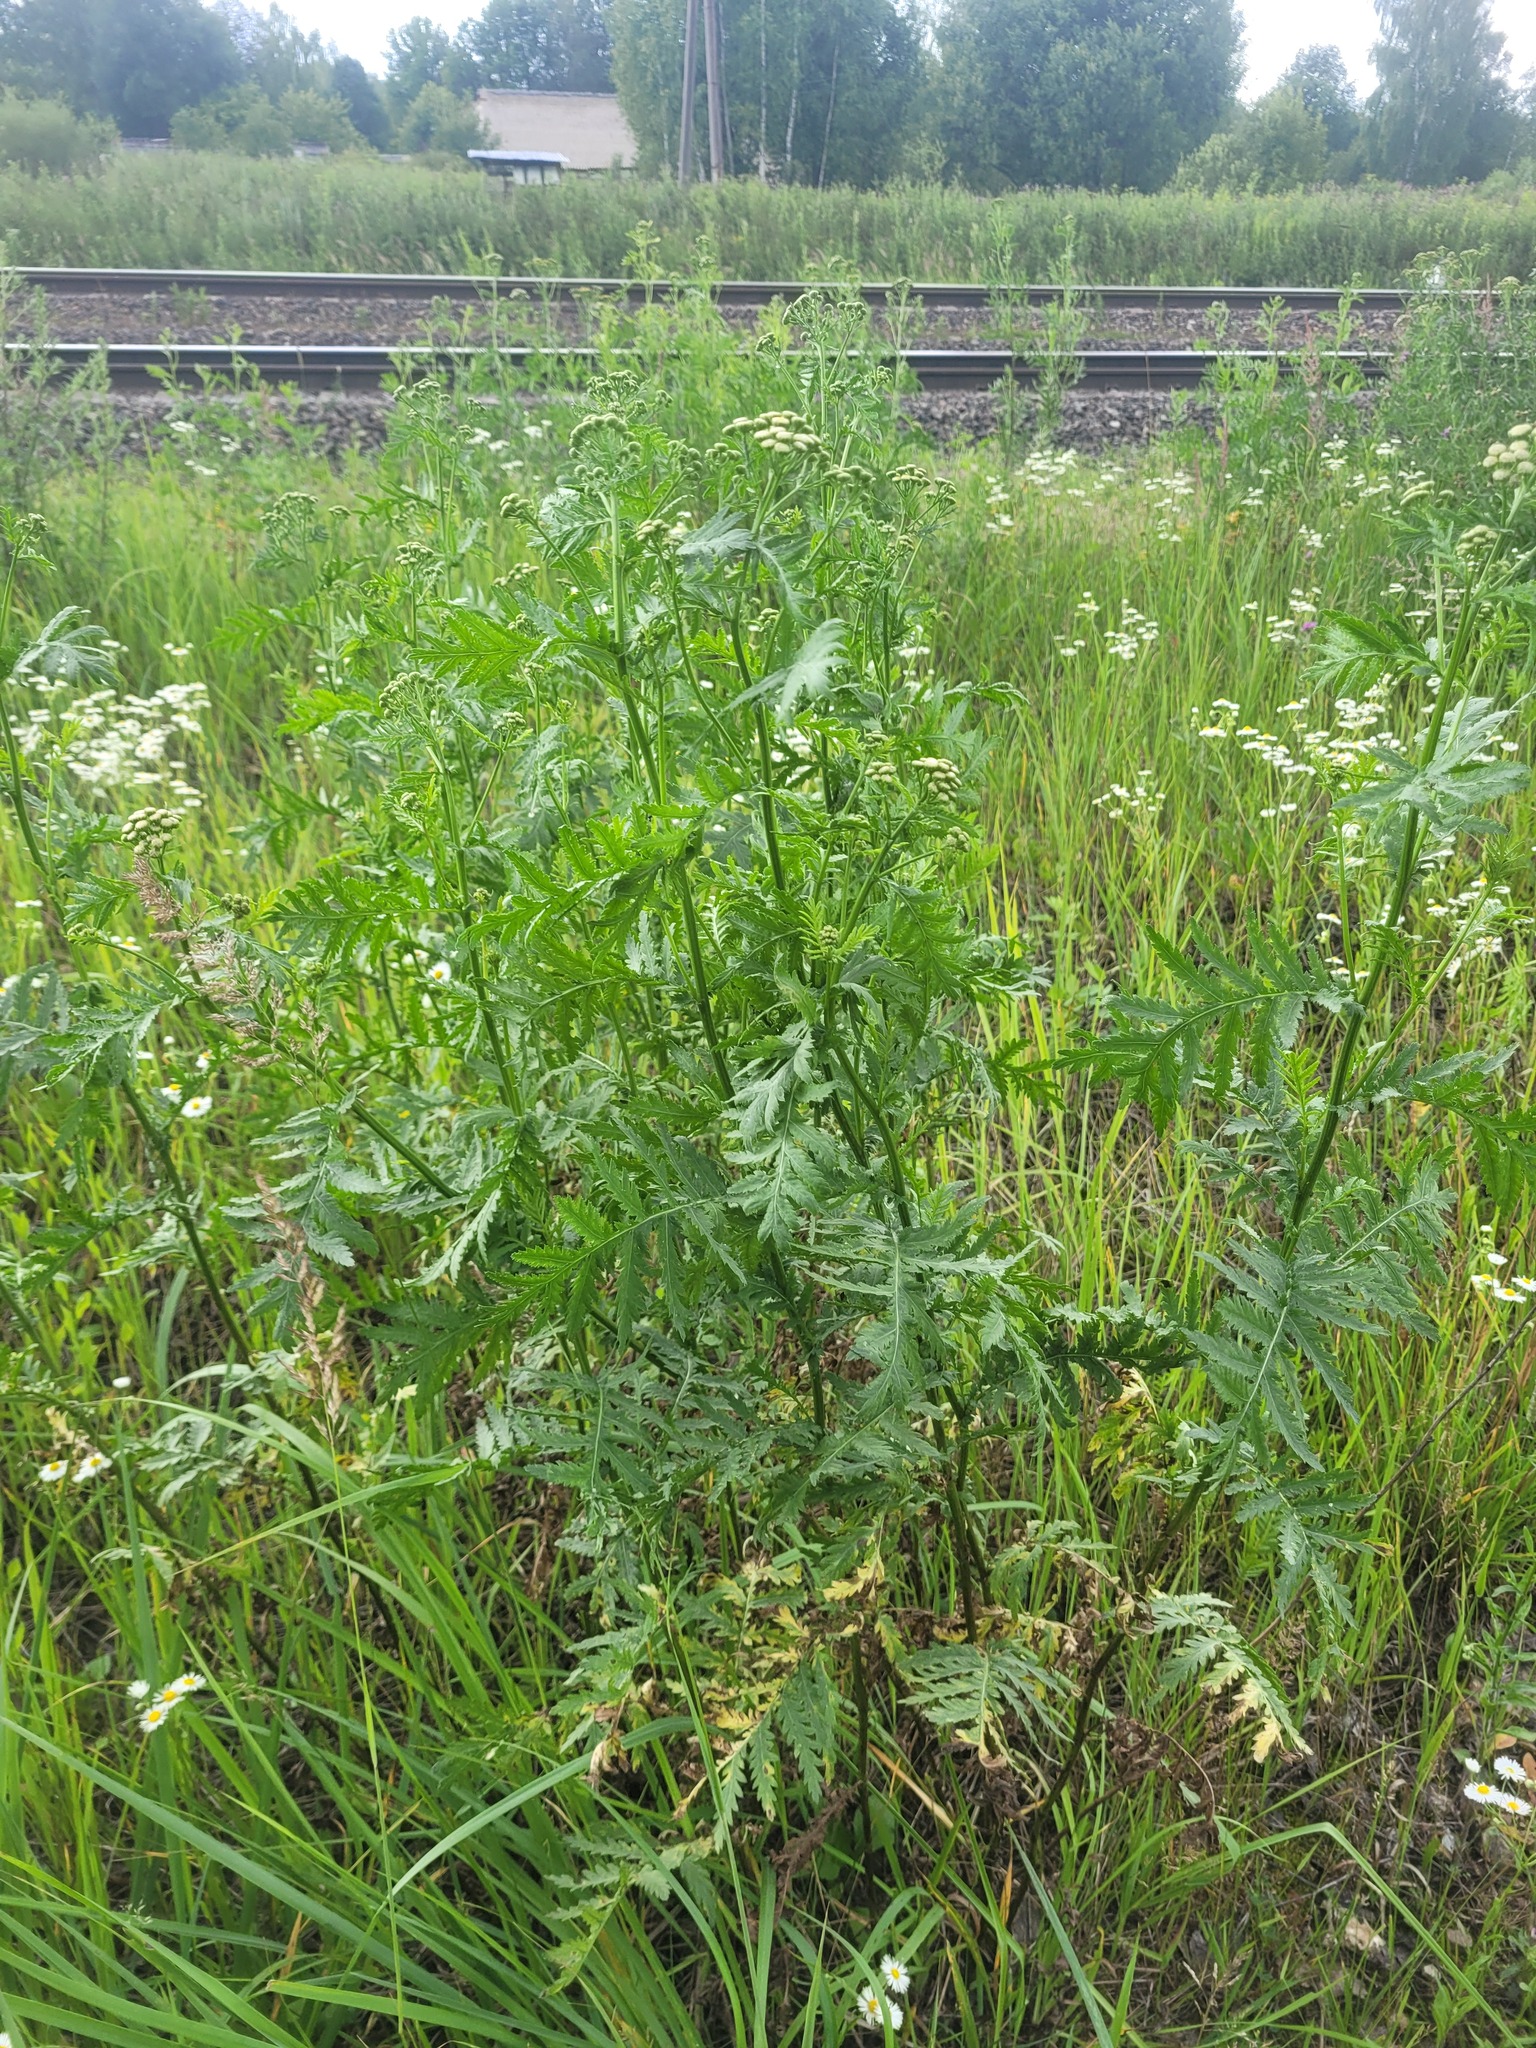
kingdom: Plantae
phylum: Tracheophyta
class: Magnoliopsida
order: Asterales
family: Asteraceae
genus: Tanacetum
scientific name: Tanacetum vulgare
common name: Common tansy
